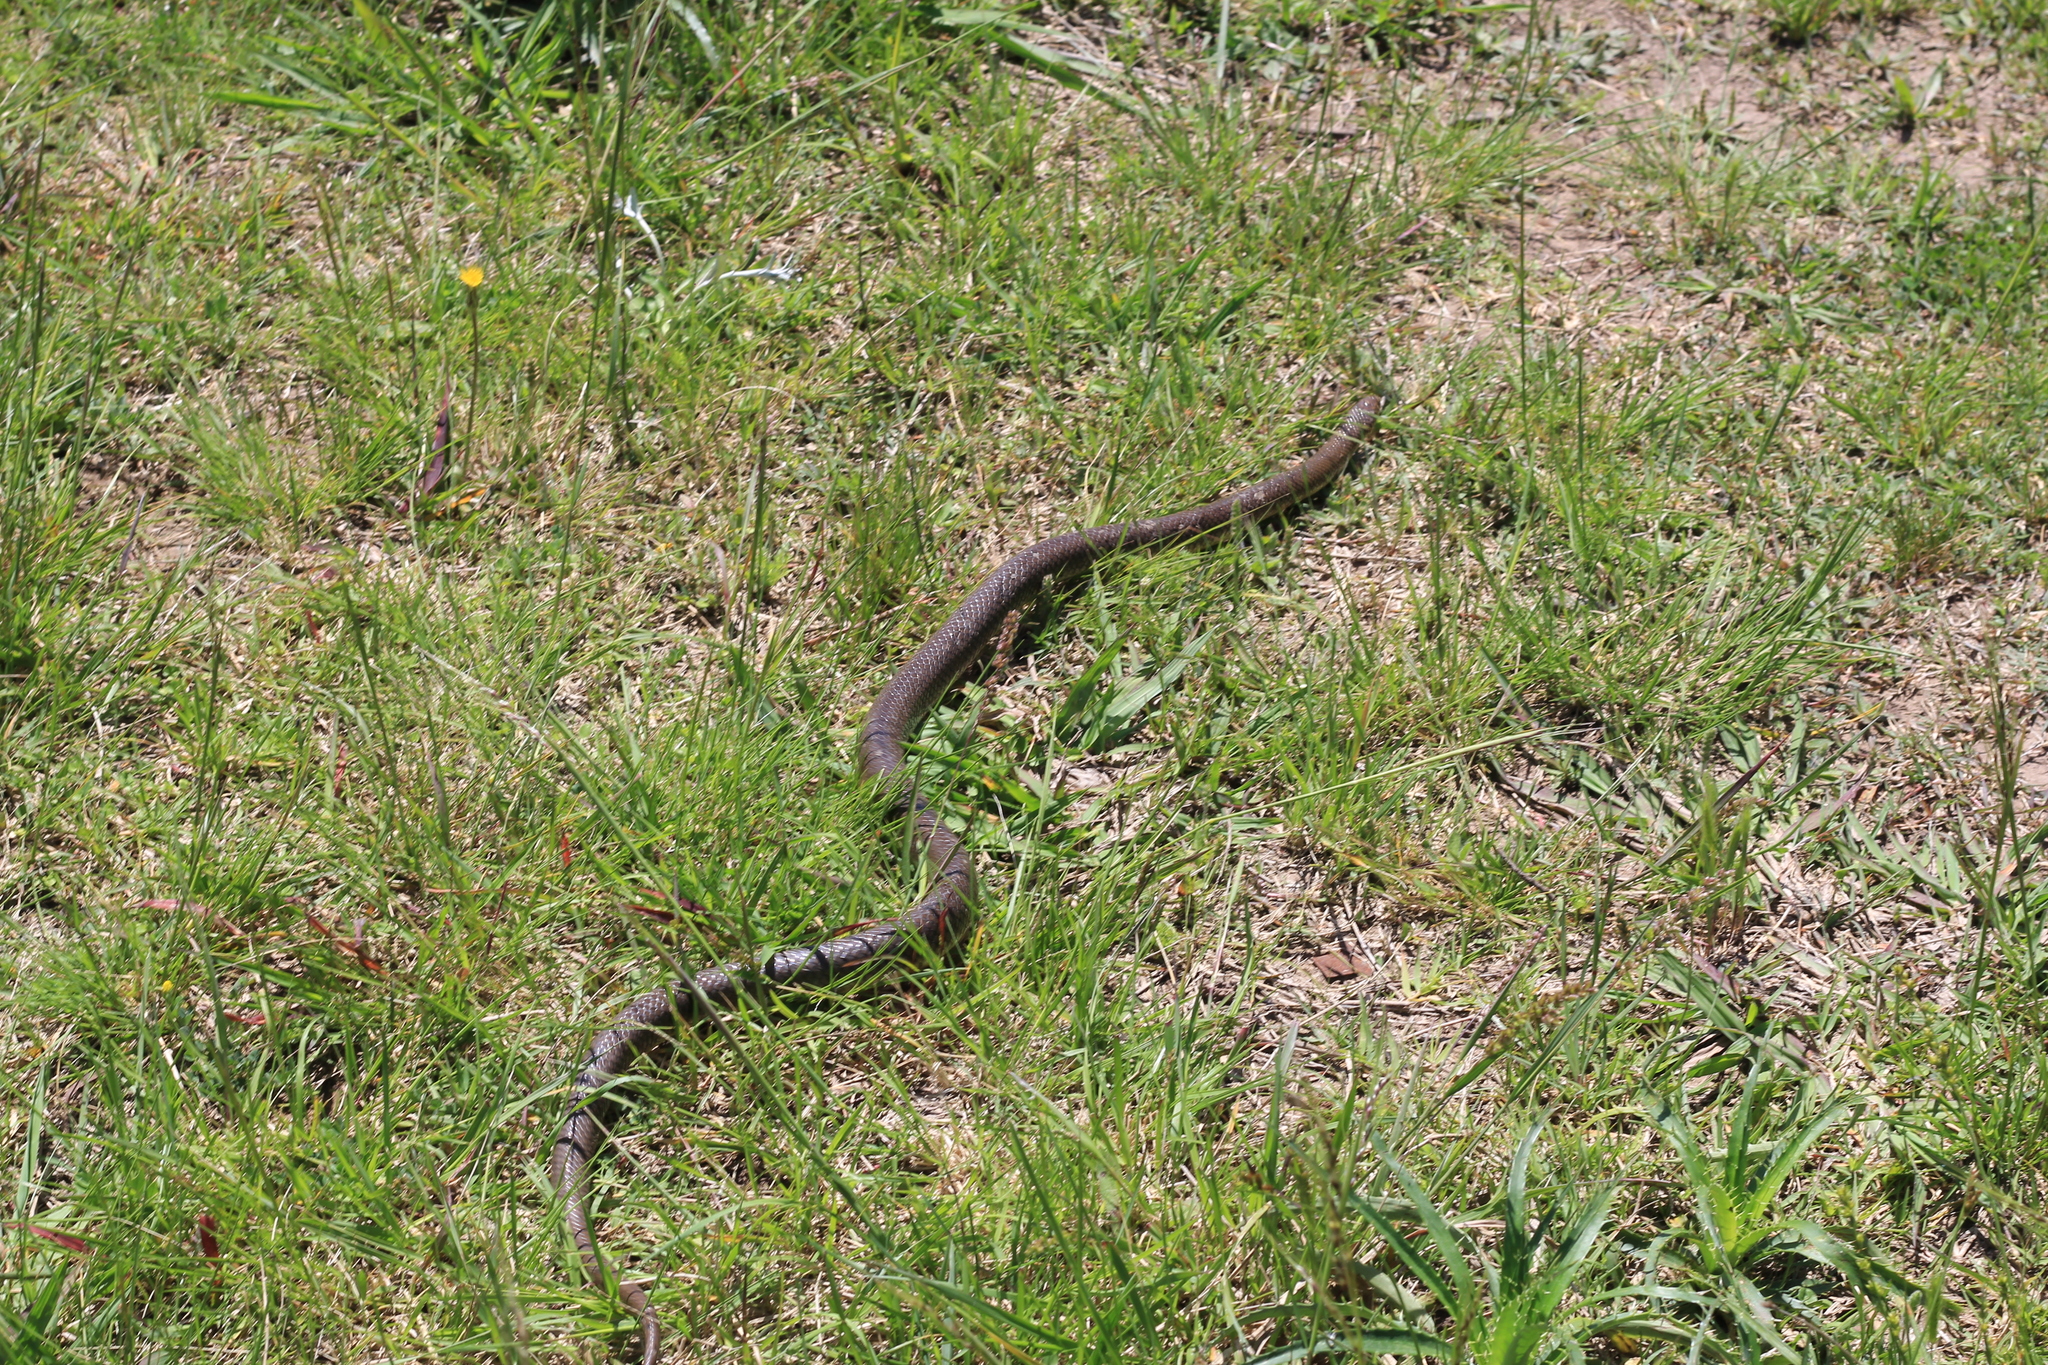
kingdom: Animalia
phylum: Chordata
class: Squamata
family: Colubridae
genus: Paraphimophis
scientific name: Paraphimophis rusticus
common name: Culebra
